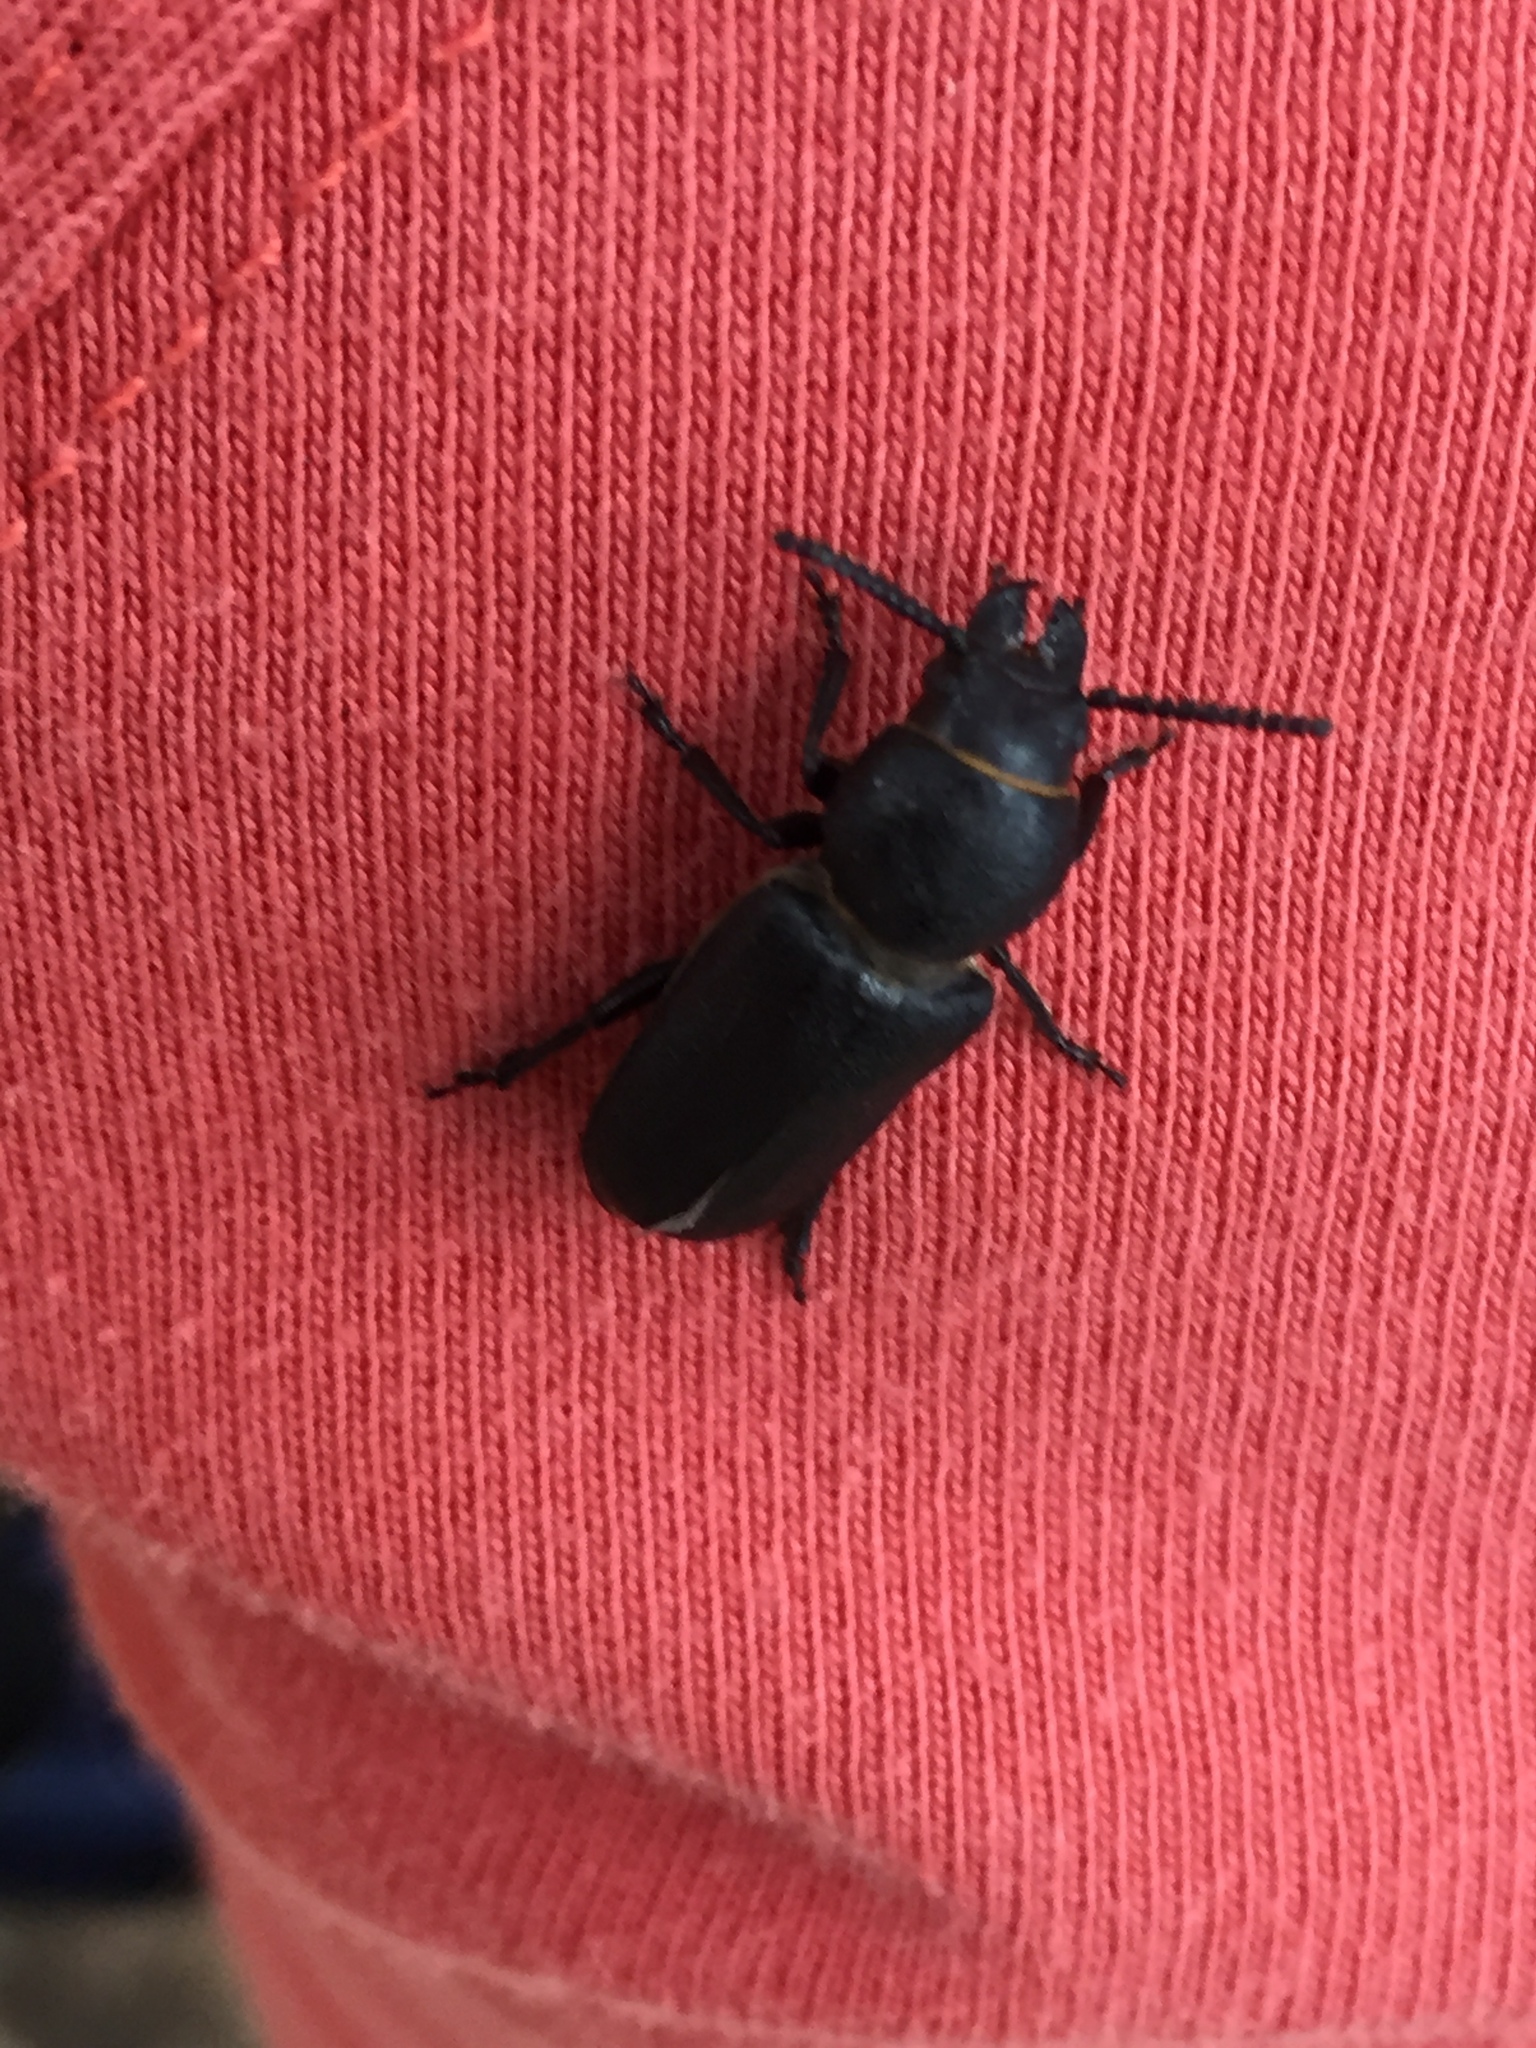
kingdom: Animalia
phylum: Arthropoda
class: Insecta
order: Coleoptera
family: Cerambycidae
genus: Spondylis
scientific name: Spondylis buprestoides
